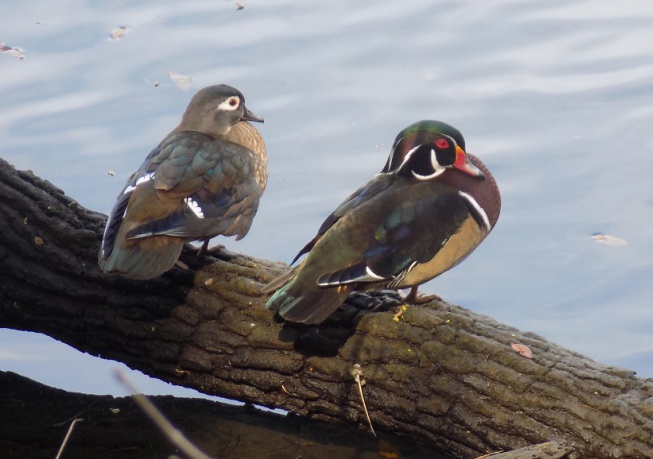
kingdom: Animalia
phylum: Chordata
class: Aves
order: Anseriformes
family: Anatidae
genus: Aix
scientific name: Aix sponsa
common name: Wood duck
